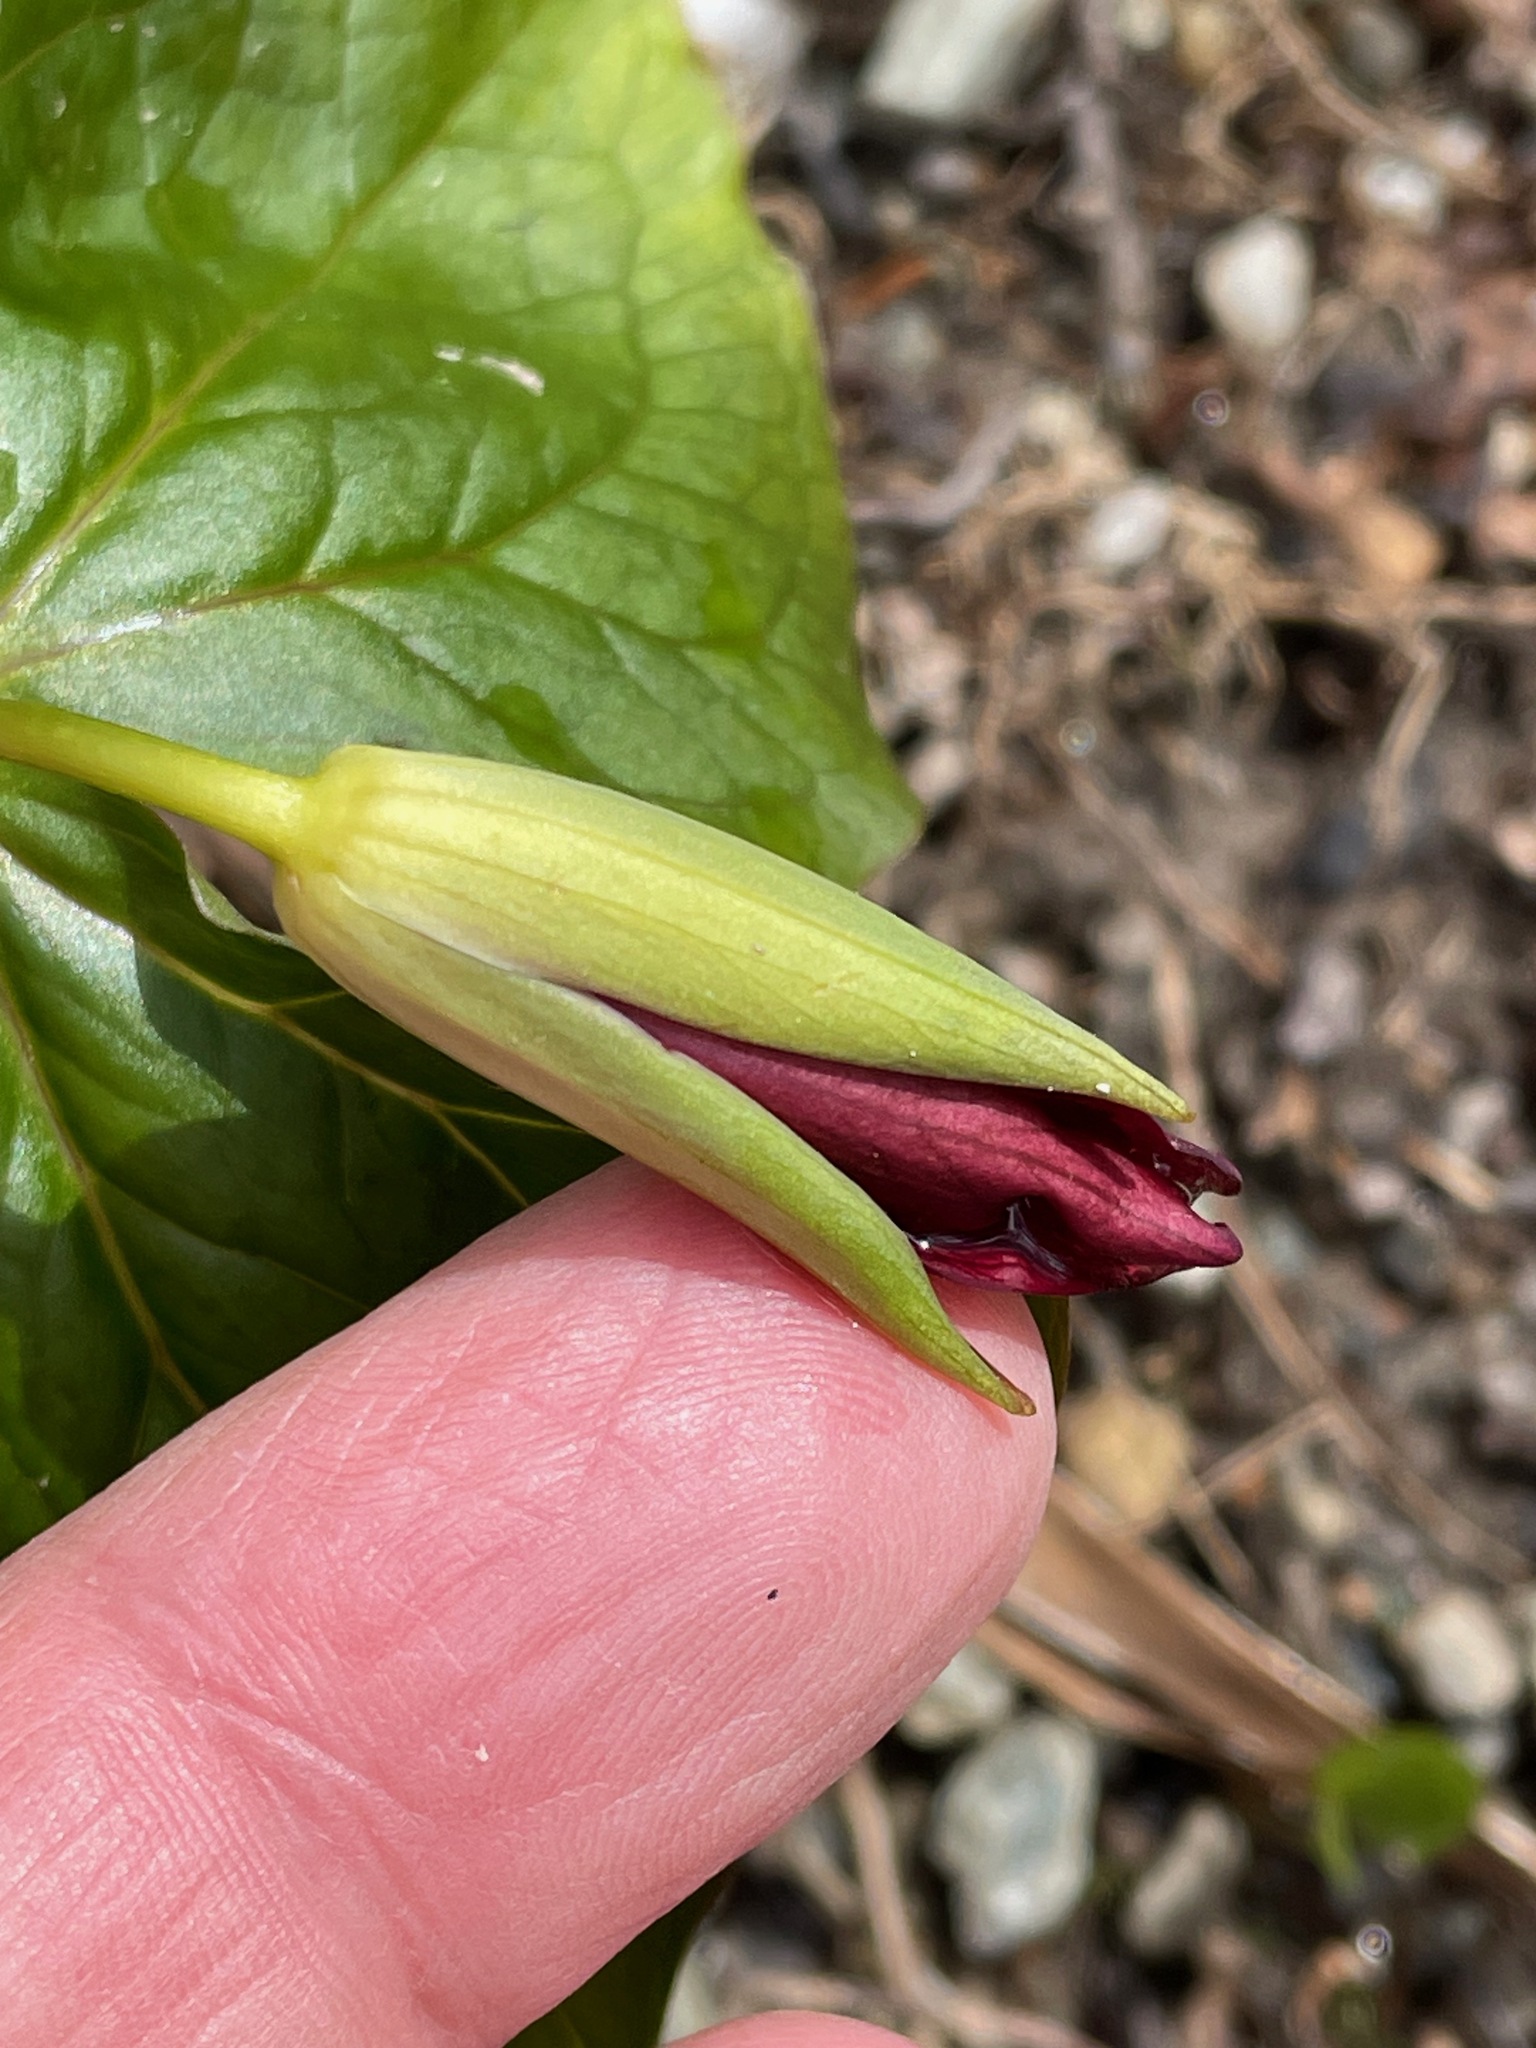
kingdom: Plantae
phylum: Tracheophyta
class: Liliopsida
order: Liliales
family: Melanthiaceae
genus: Trillium
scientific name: Trillium erectum
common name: Purple trillium
